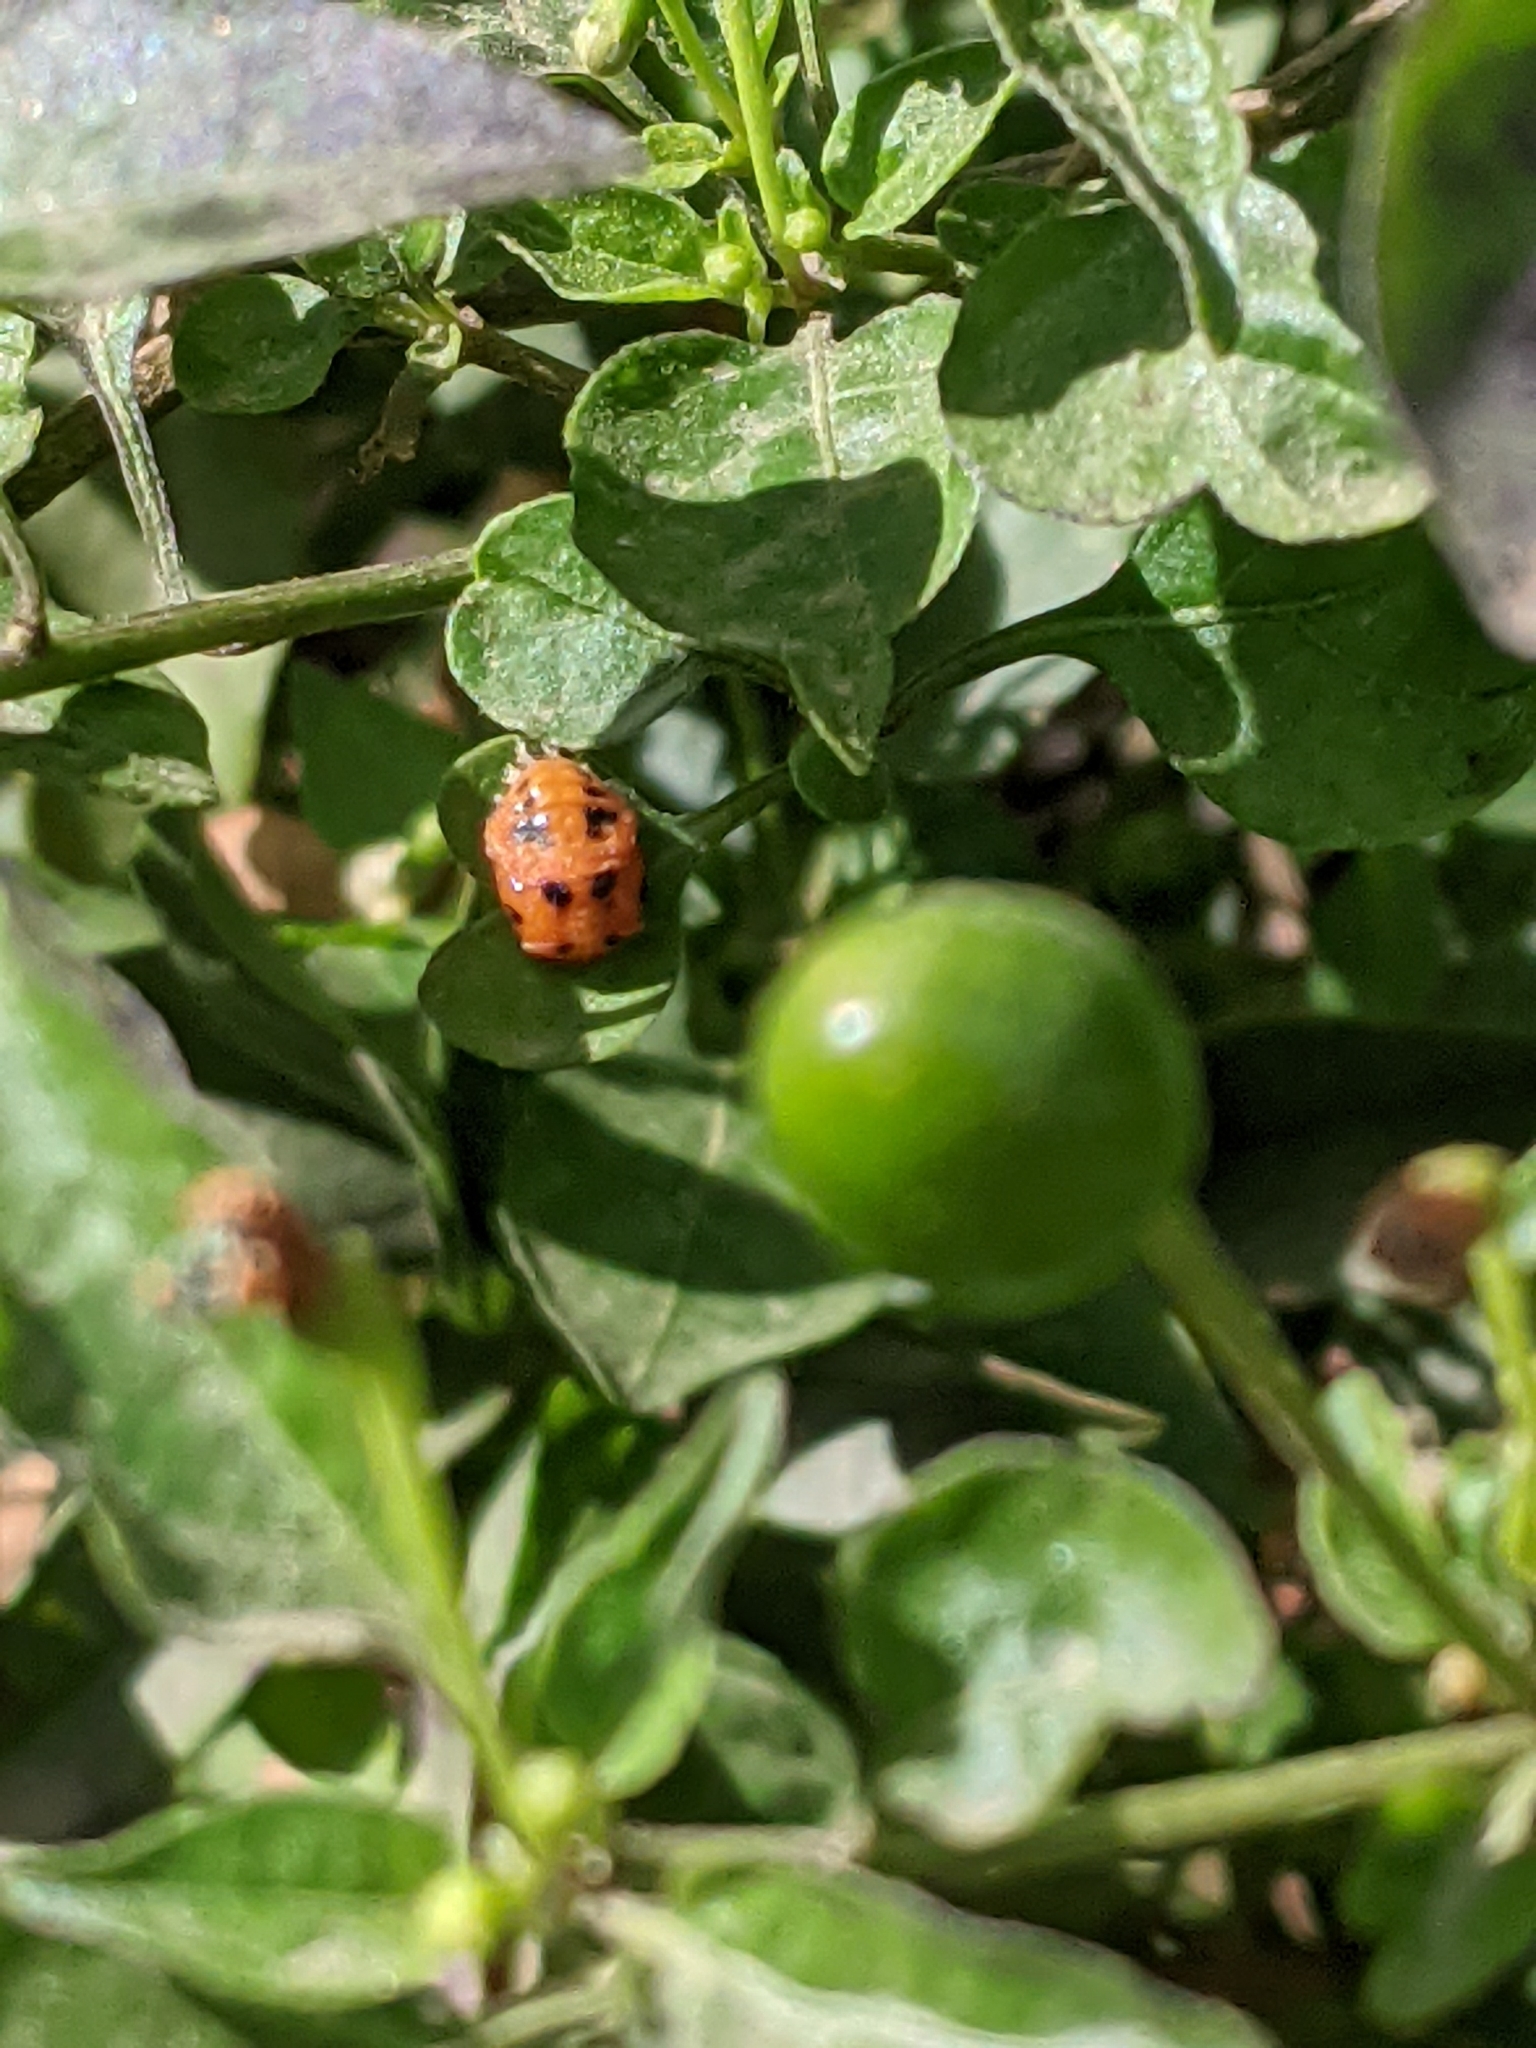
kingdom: Animalia
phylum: Arthropoda
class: Insecta
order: Coleoptera
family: Coccinellidae
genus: Harmonia
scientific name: Harmonia axyridis
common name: Harlequin ladybird
